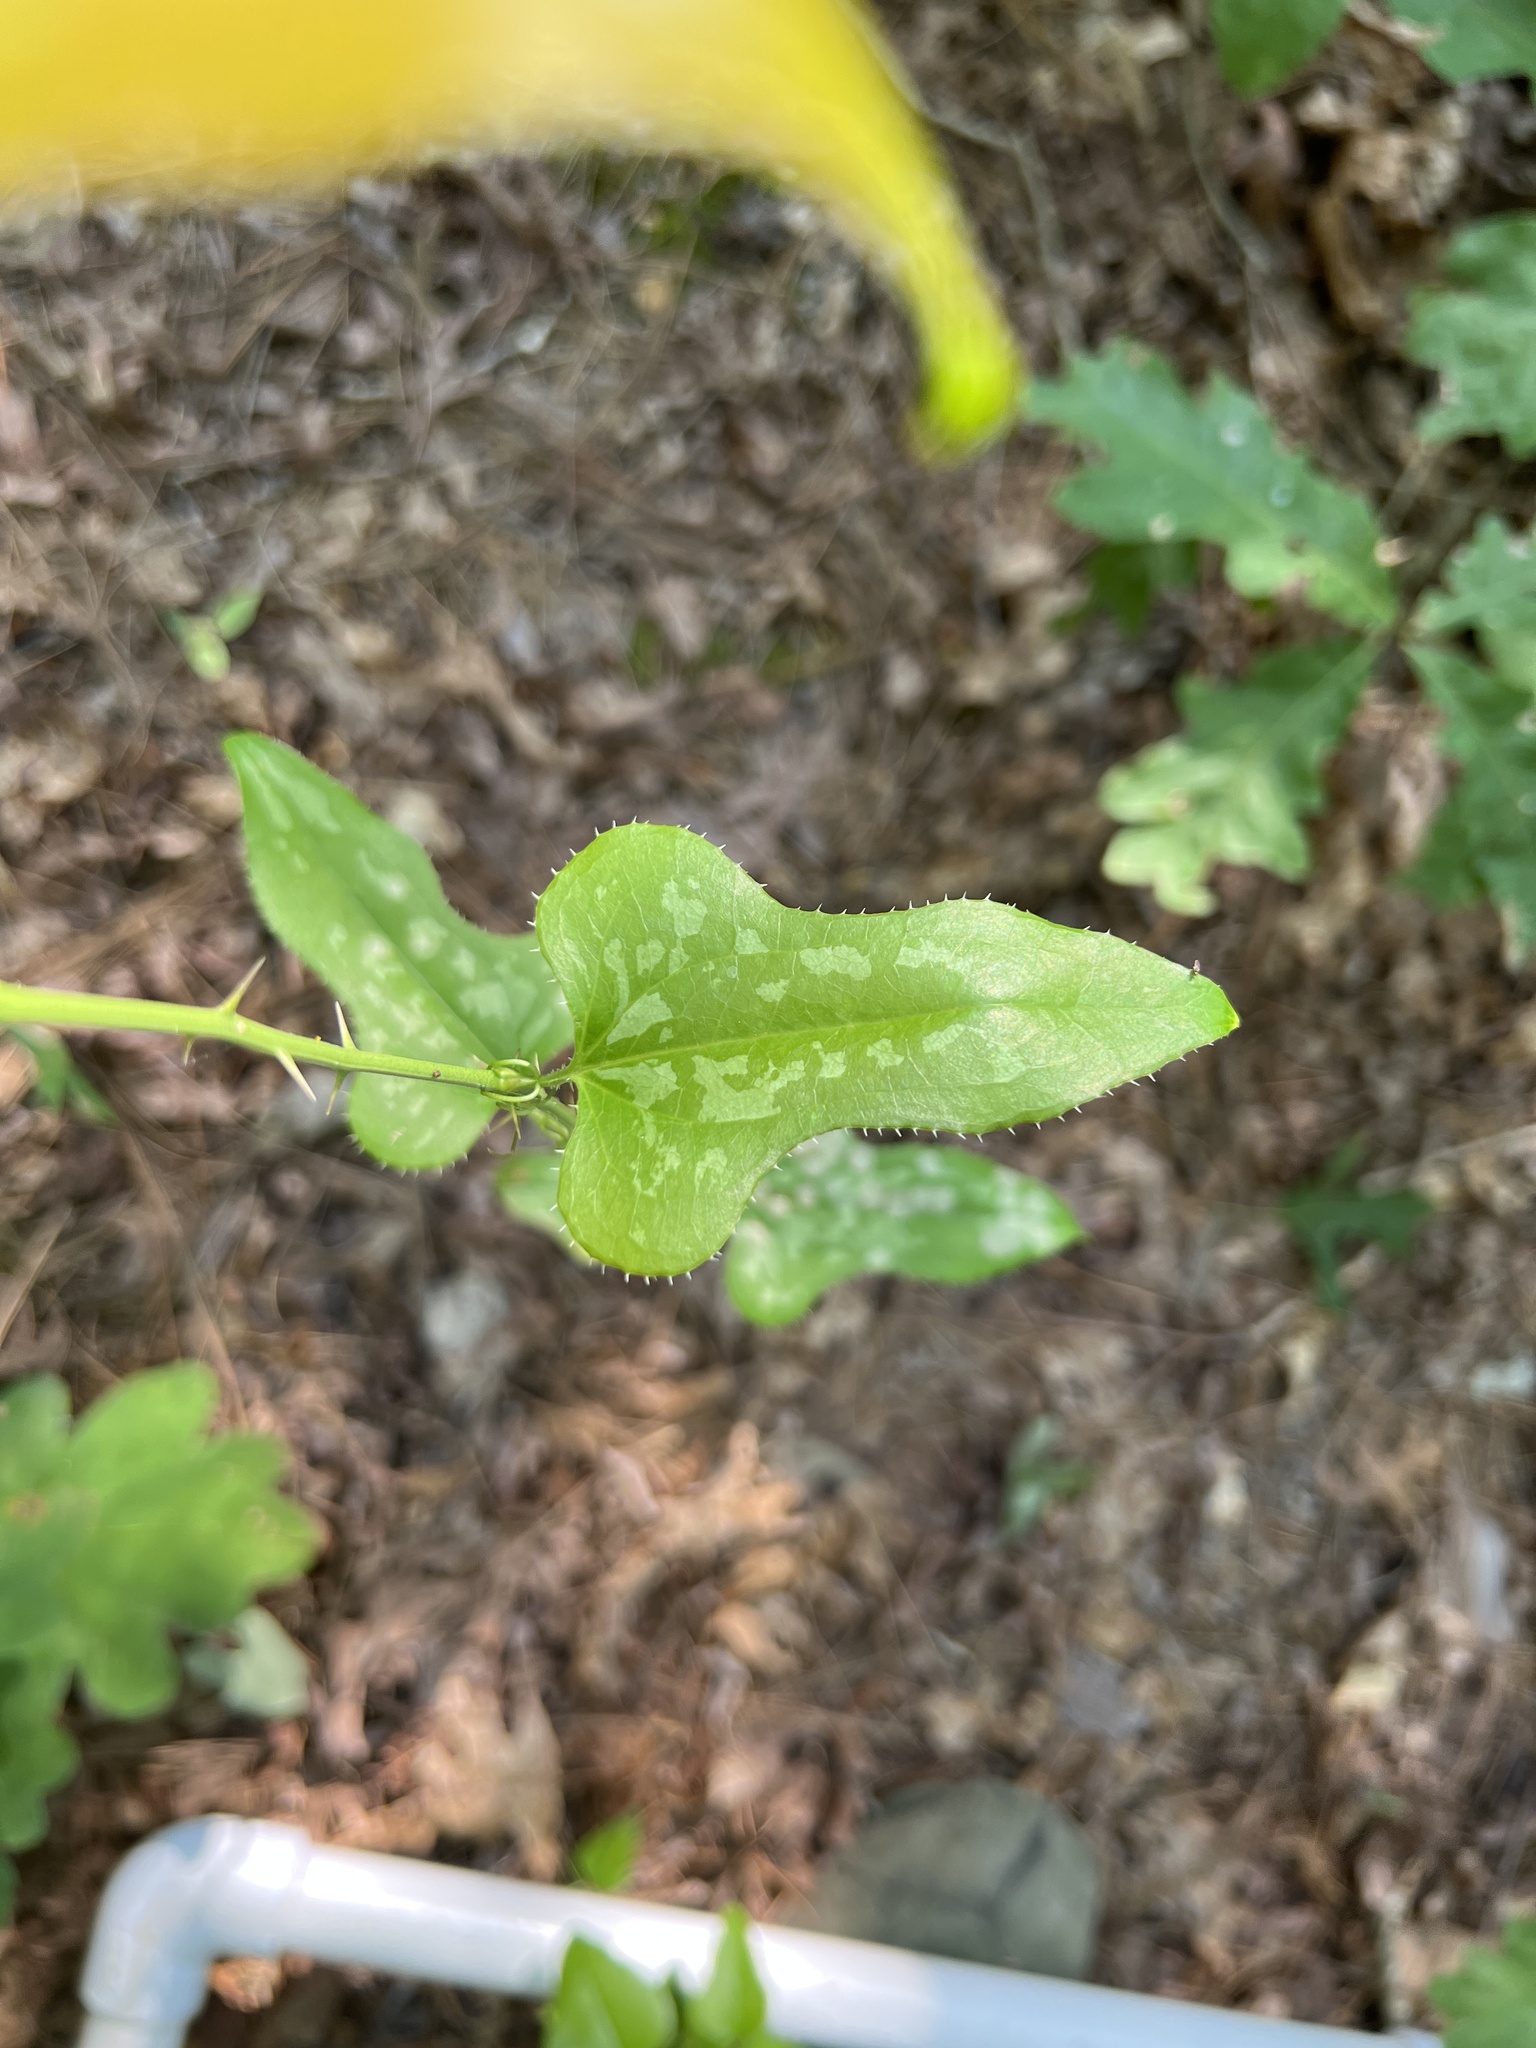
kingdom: Plantae
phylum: Tracheophyta
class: Liliopsida
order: Liliales
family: Smilacaceae
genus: Smilax
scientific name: Smilax bona-nox
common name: Catbrier
